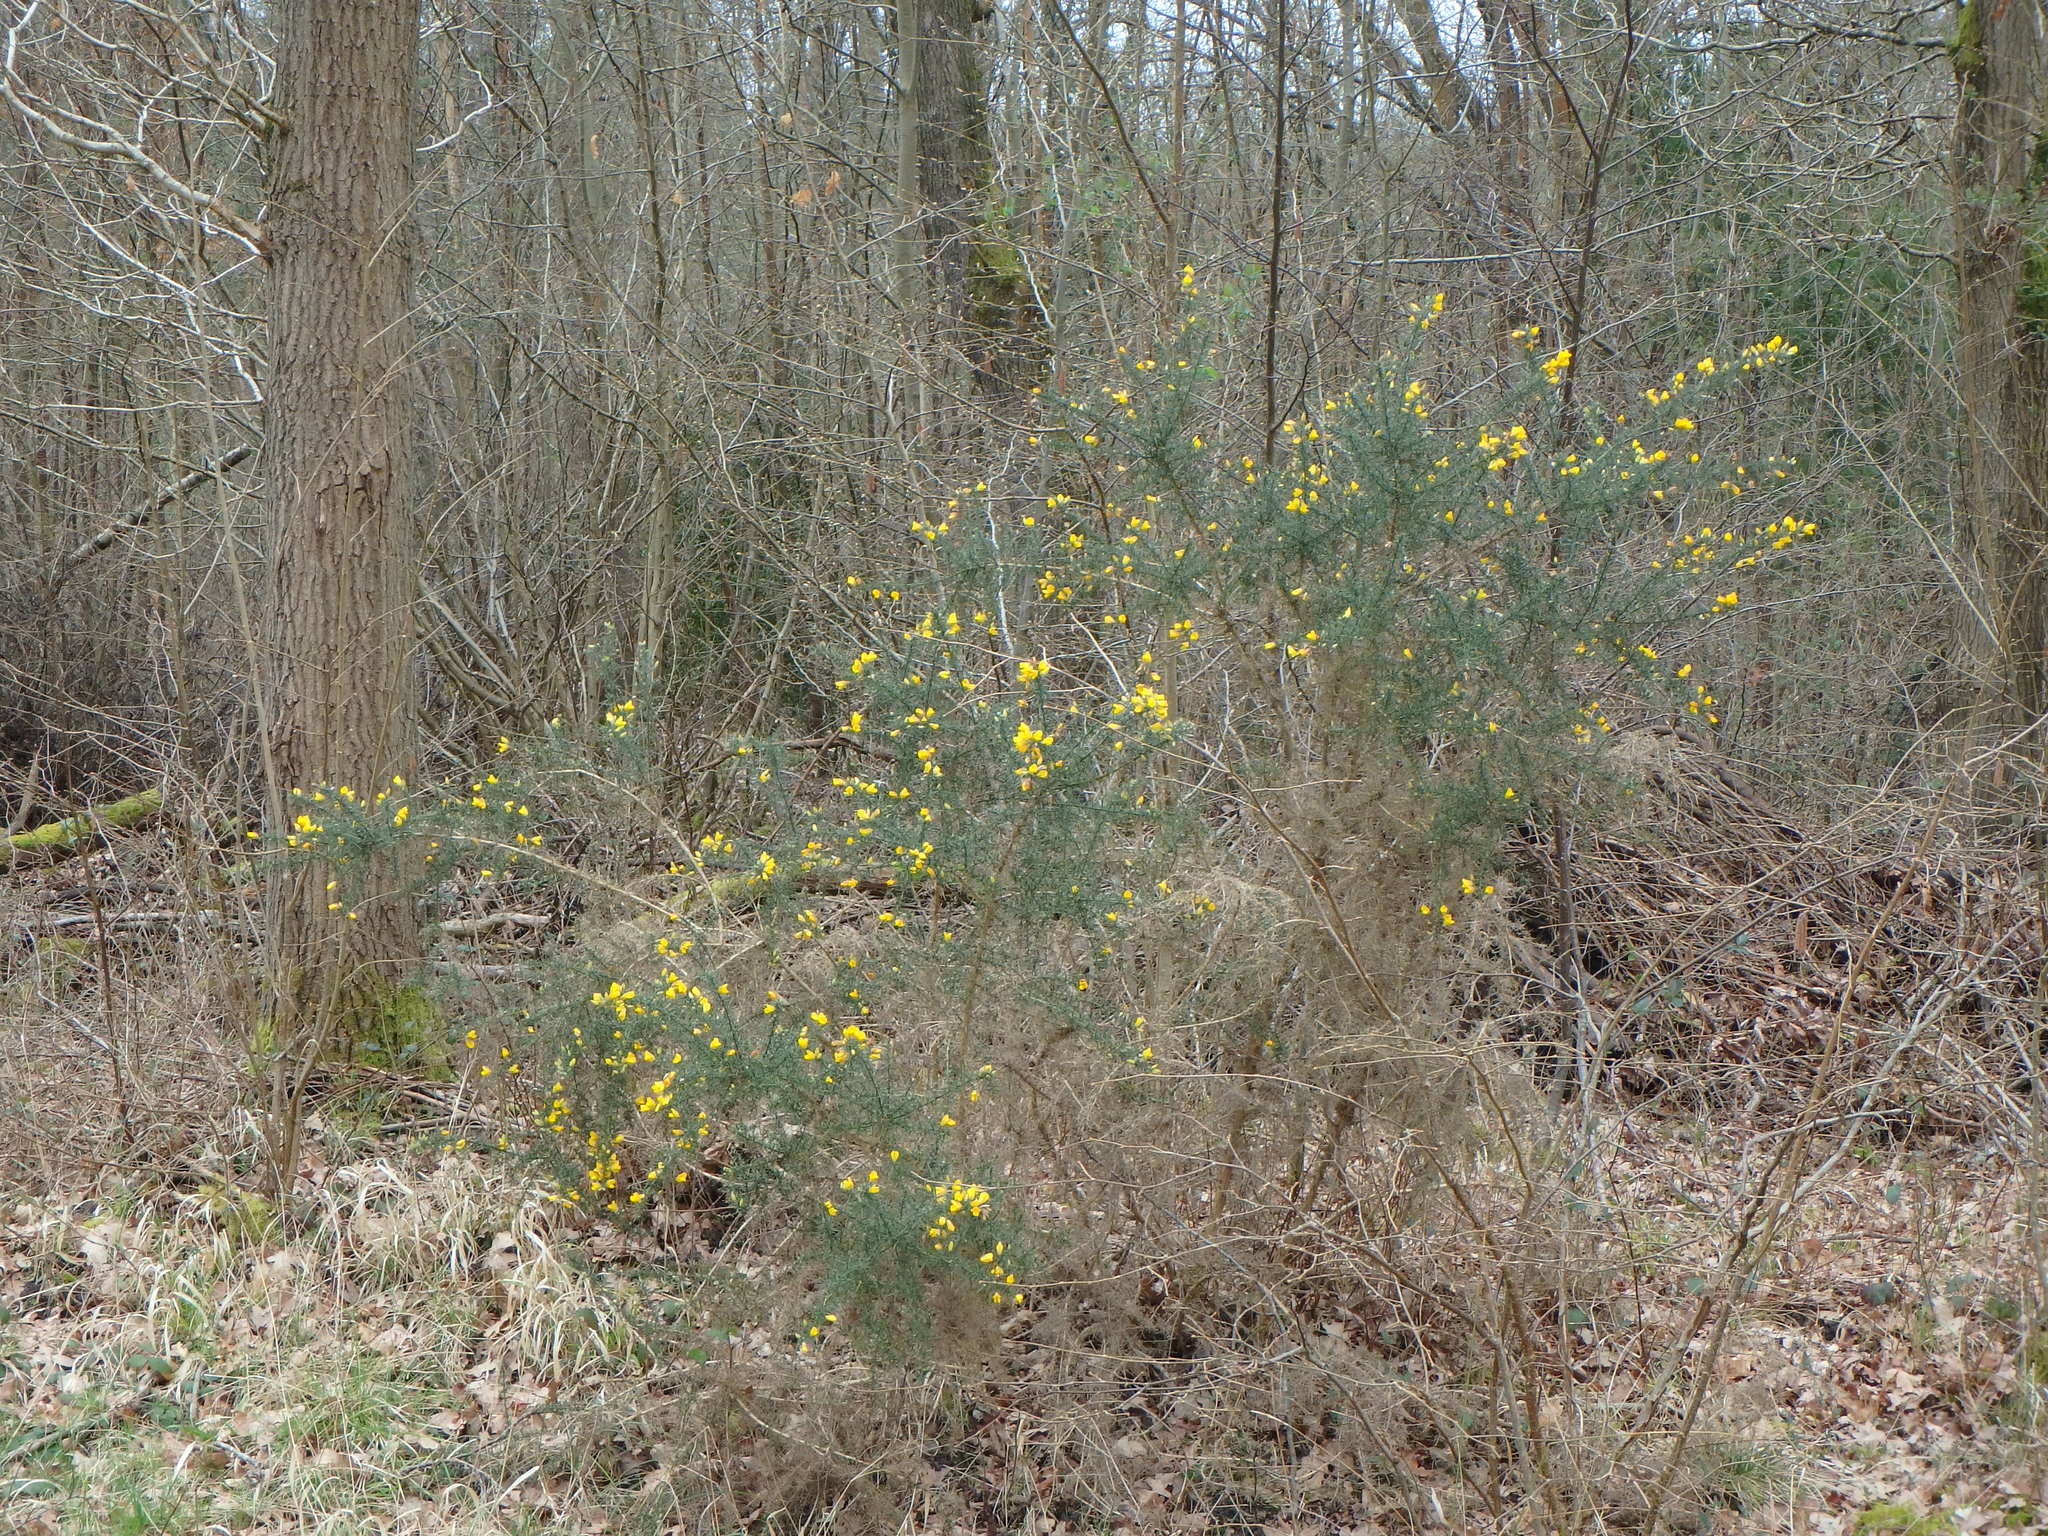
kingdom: Plantae
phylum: Tracheophyta
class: Magnoliopsida
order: Fabales
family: Fabaceae
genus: Ulex
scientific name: Ulex europaeus
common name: Common gorse
